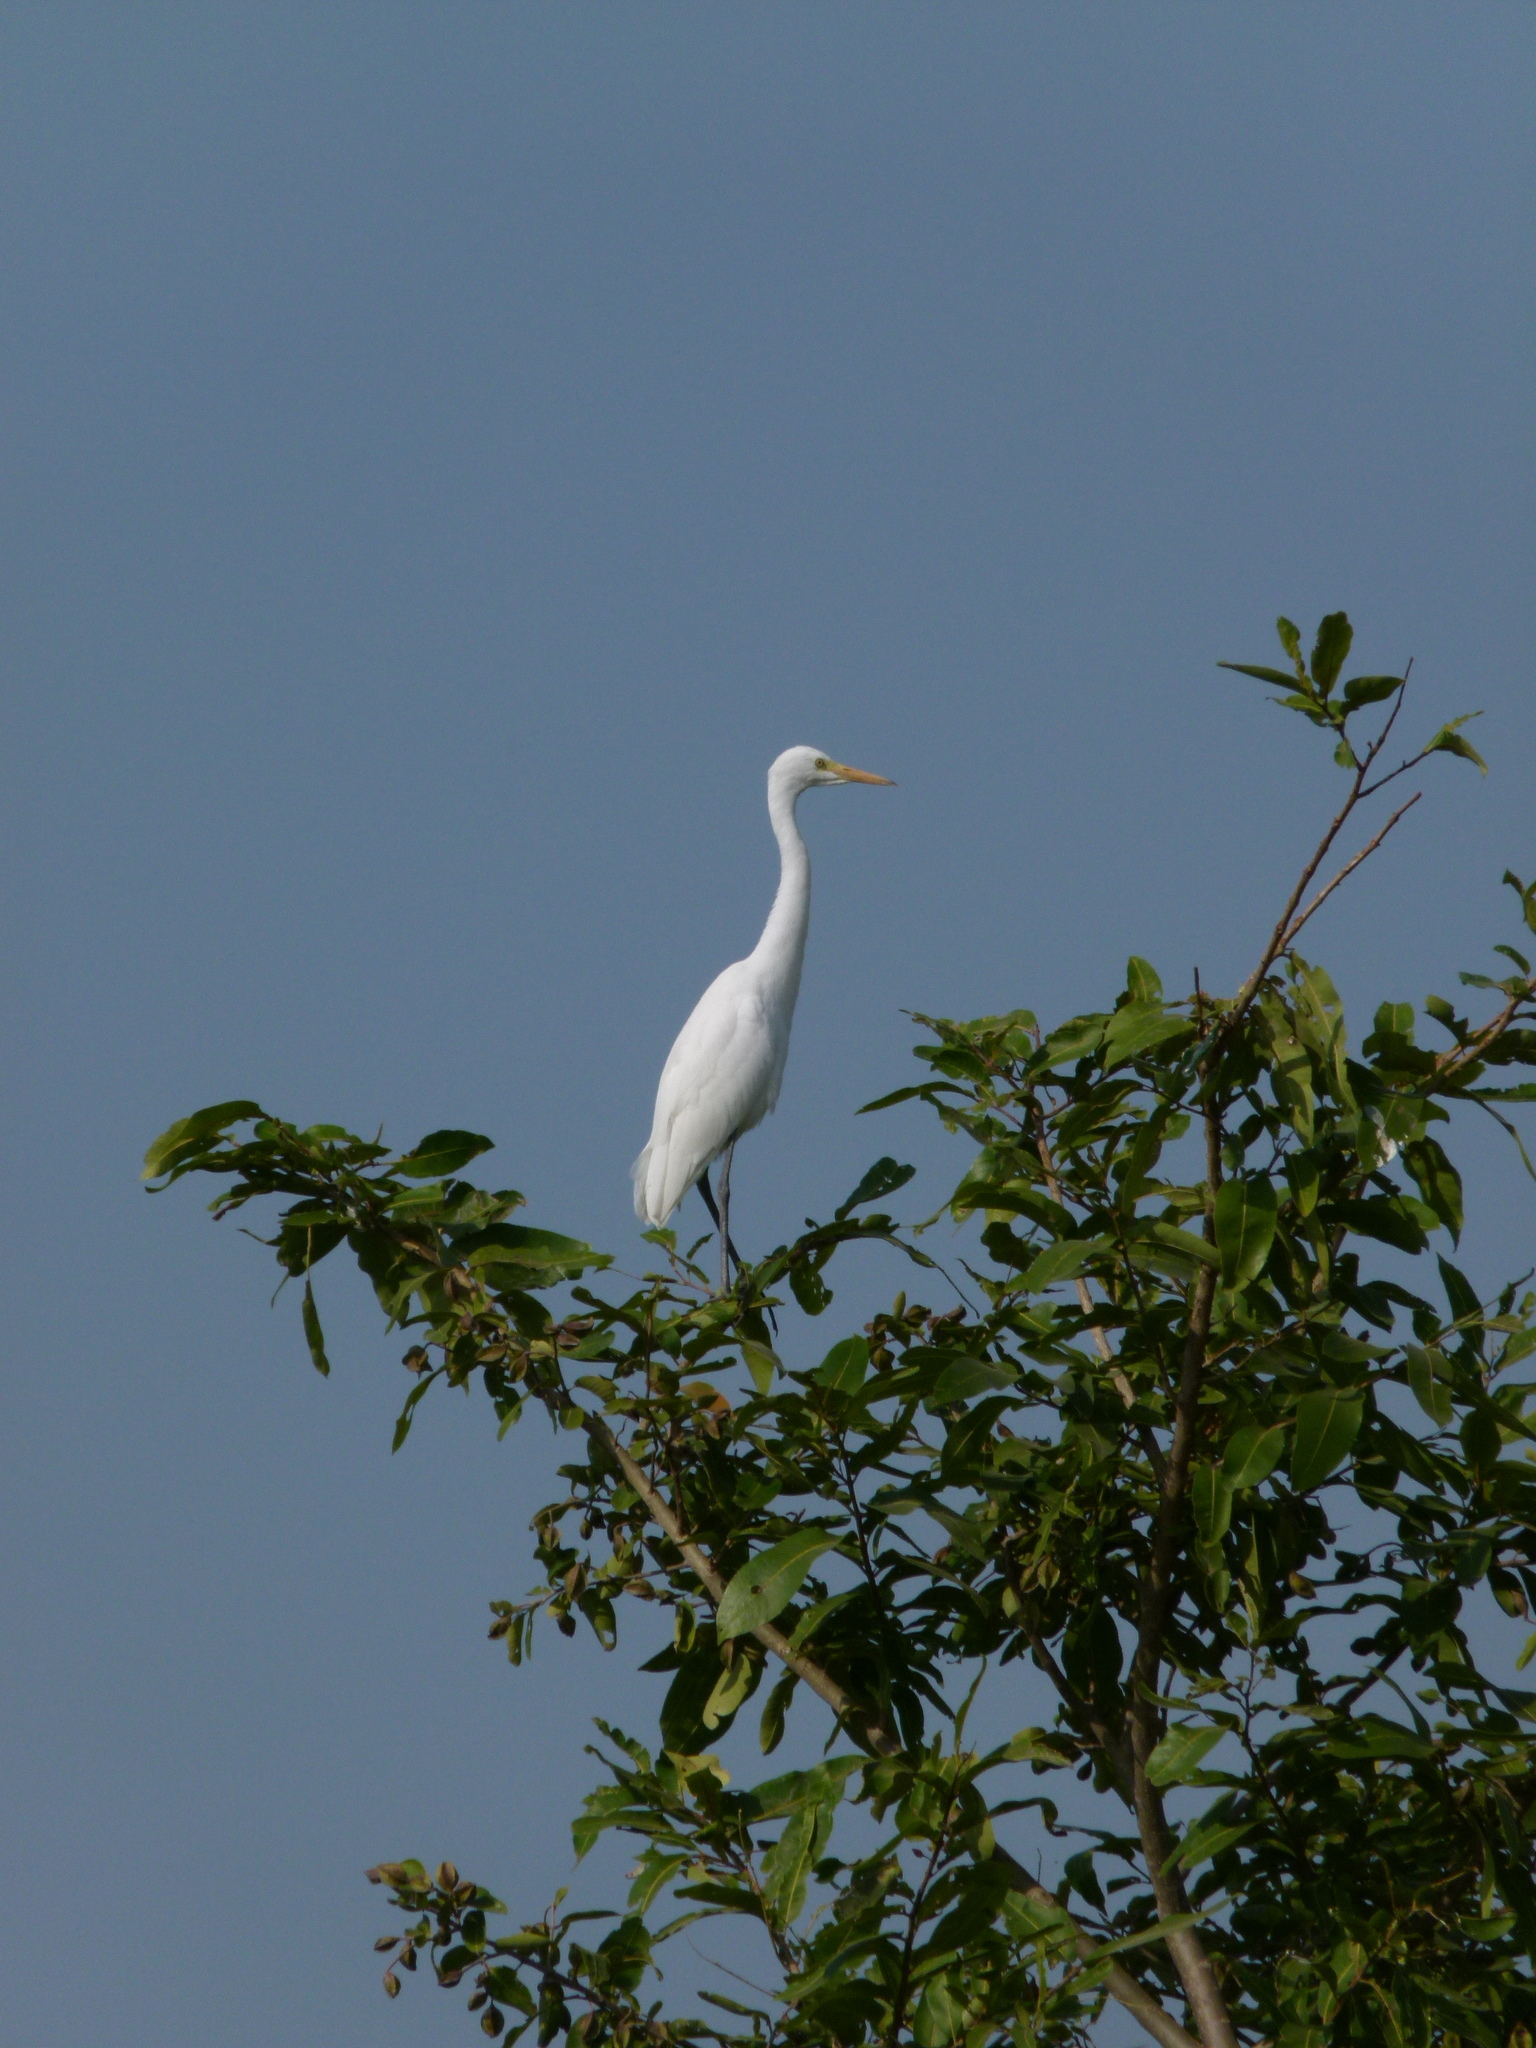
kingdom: Animalia
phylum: Chordata
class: Aves
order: Pelecaniformes
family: Ardeidae
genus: Egretta
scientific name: Egretta intermedia
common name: Intermediate egret
